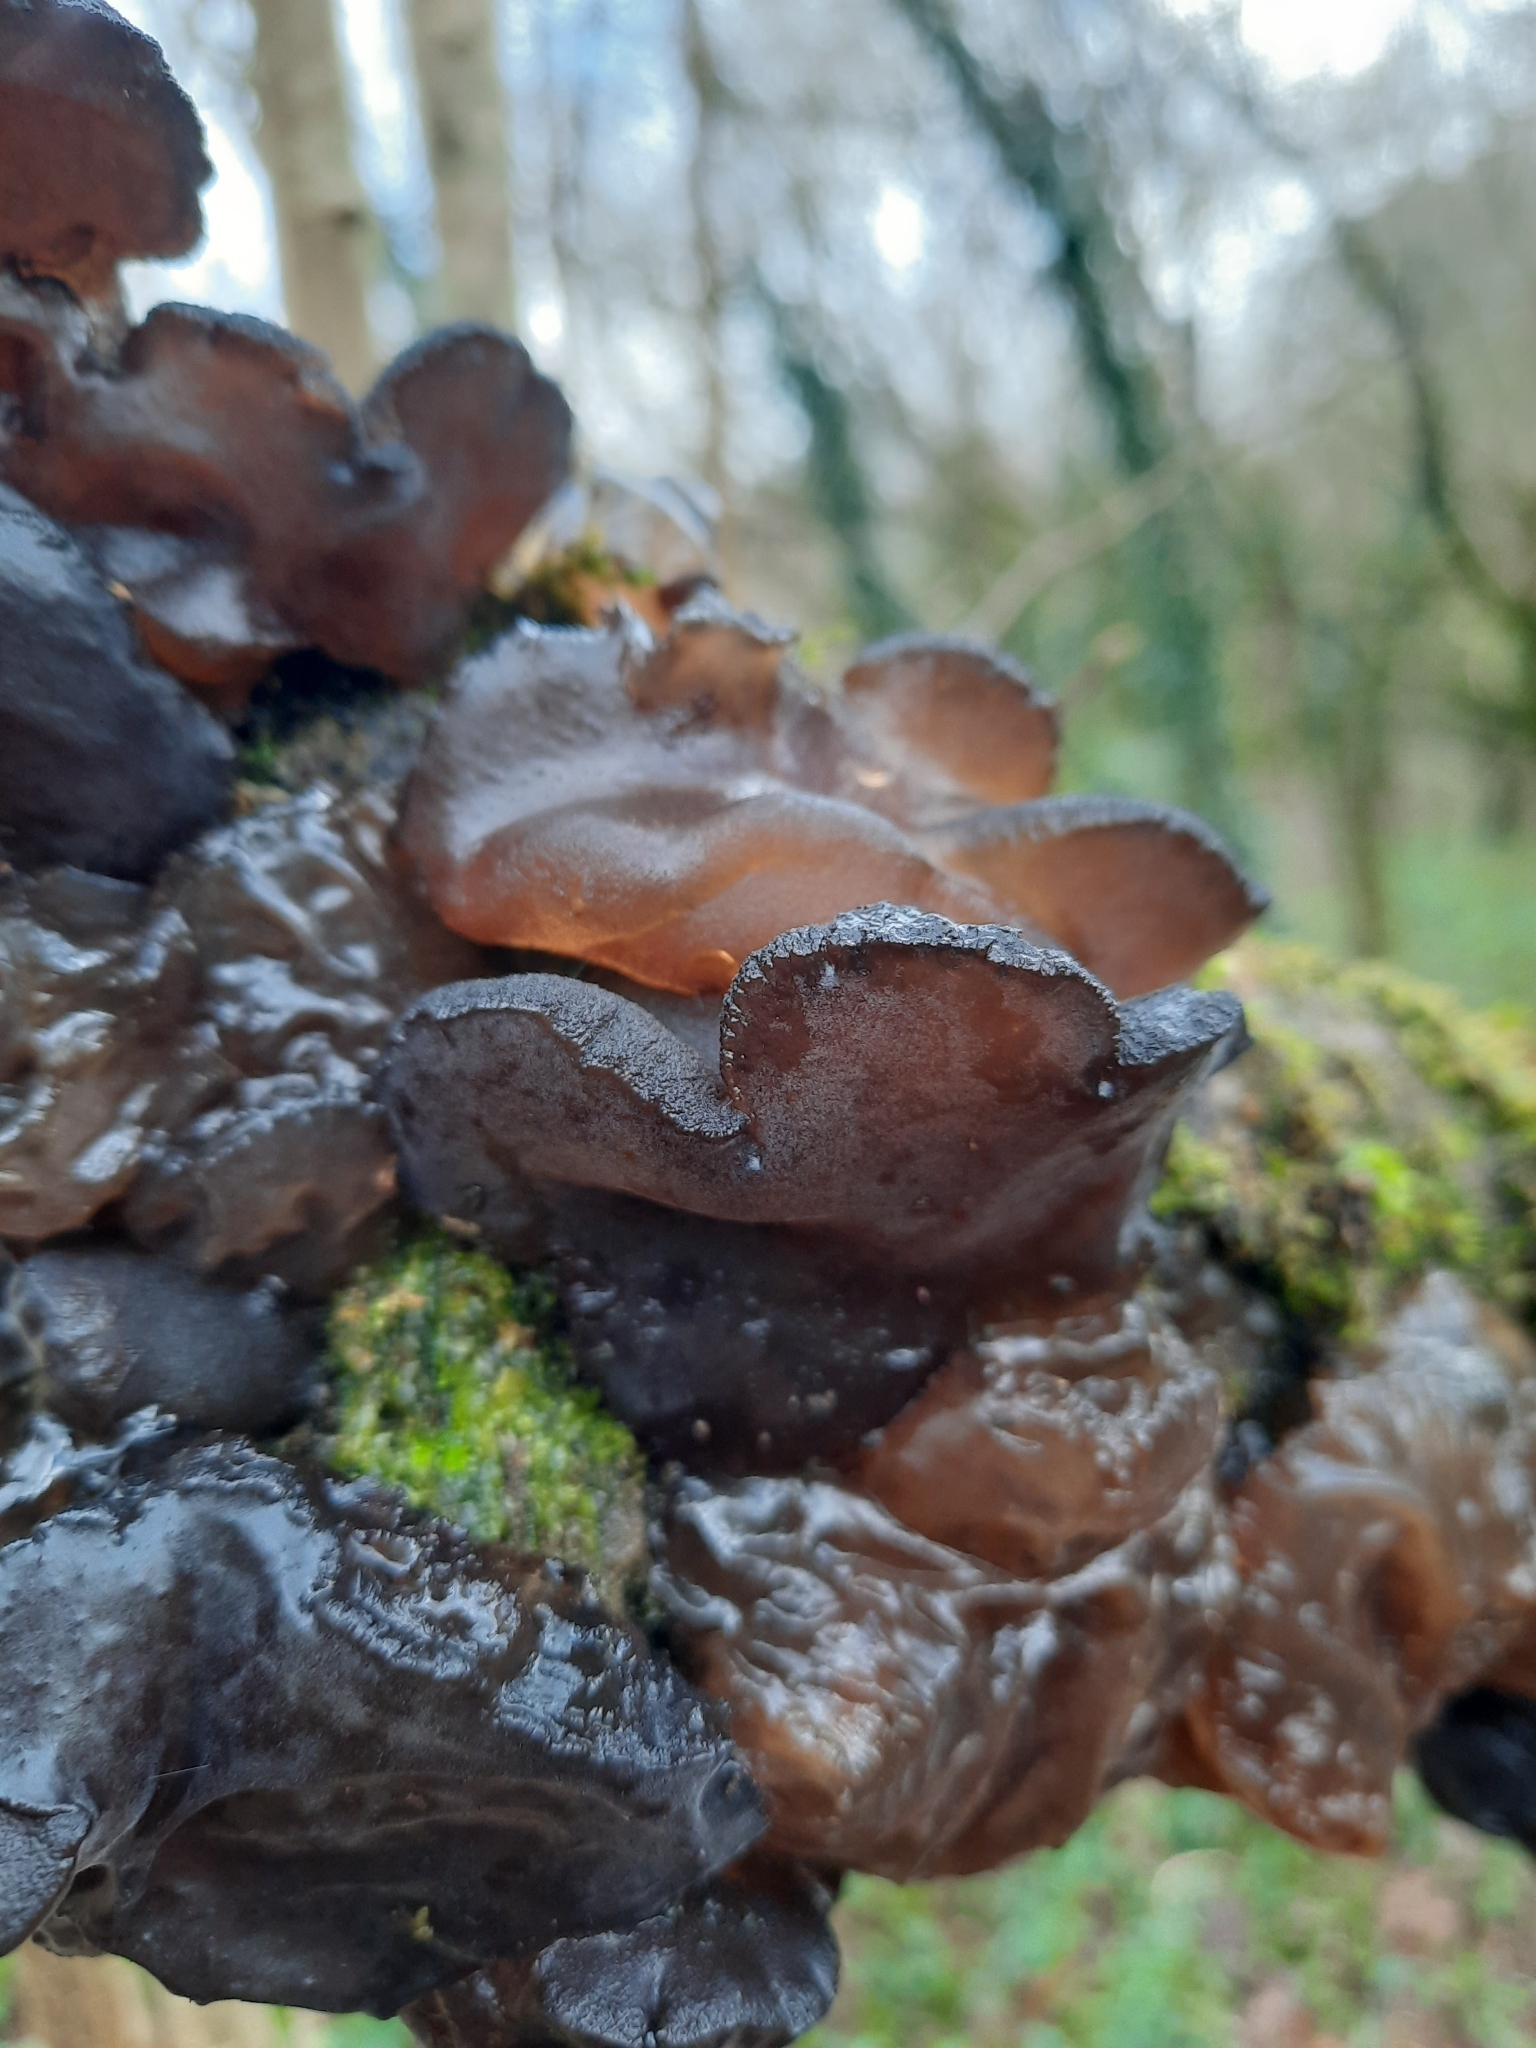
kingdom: Fungi
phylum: Basidiomycota
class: Agaricomycetes
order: Auriculariales
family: Auriculariaceae
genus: Exidia
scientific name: Exidia glandulosa
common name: Witches' butter
